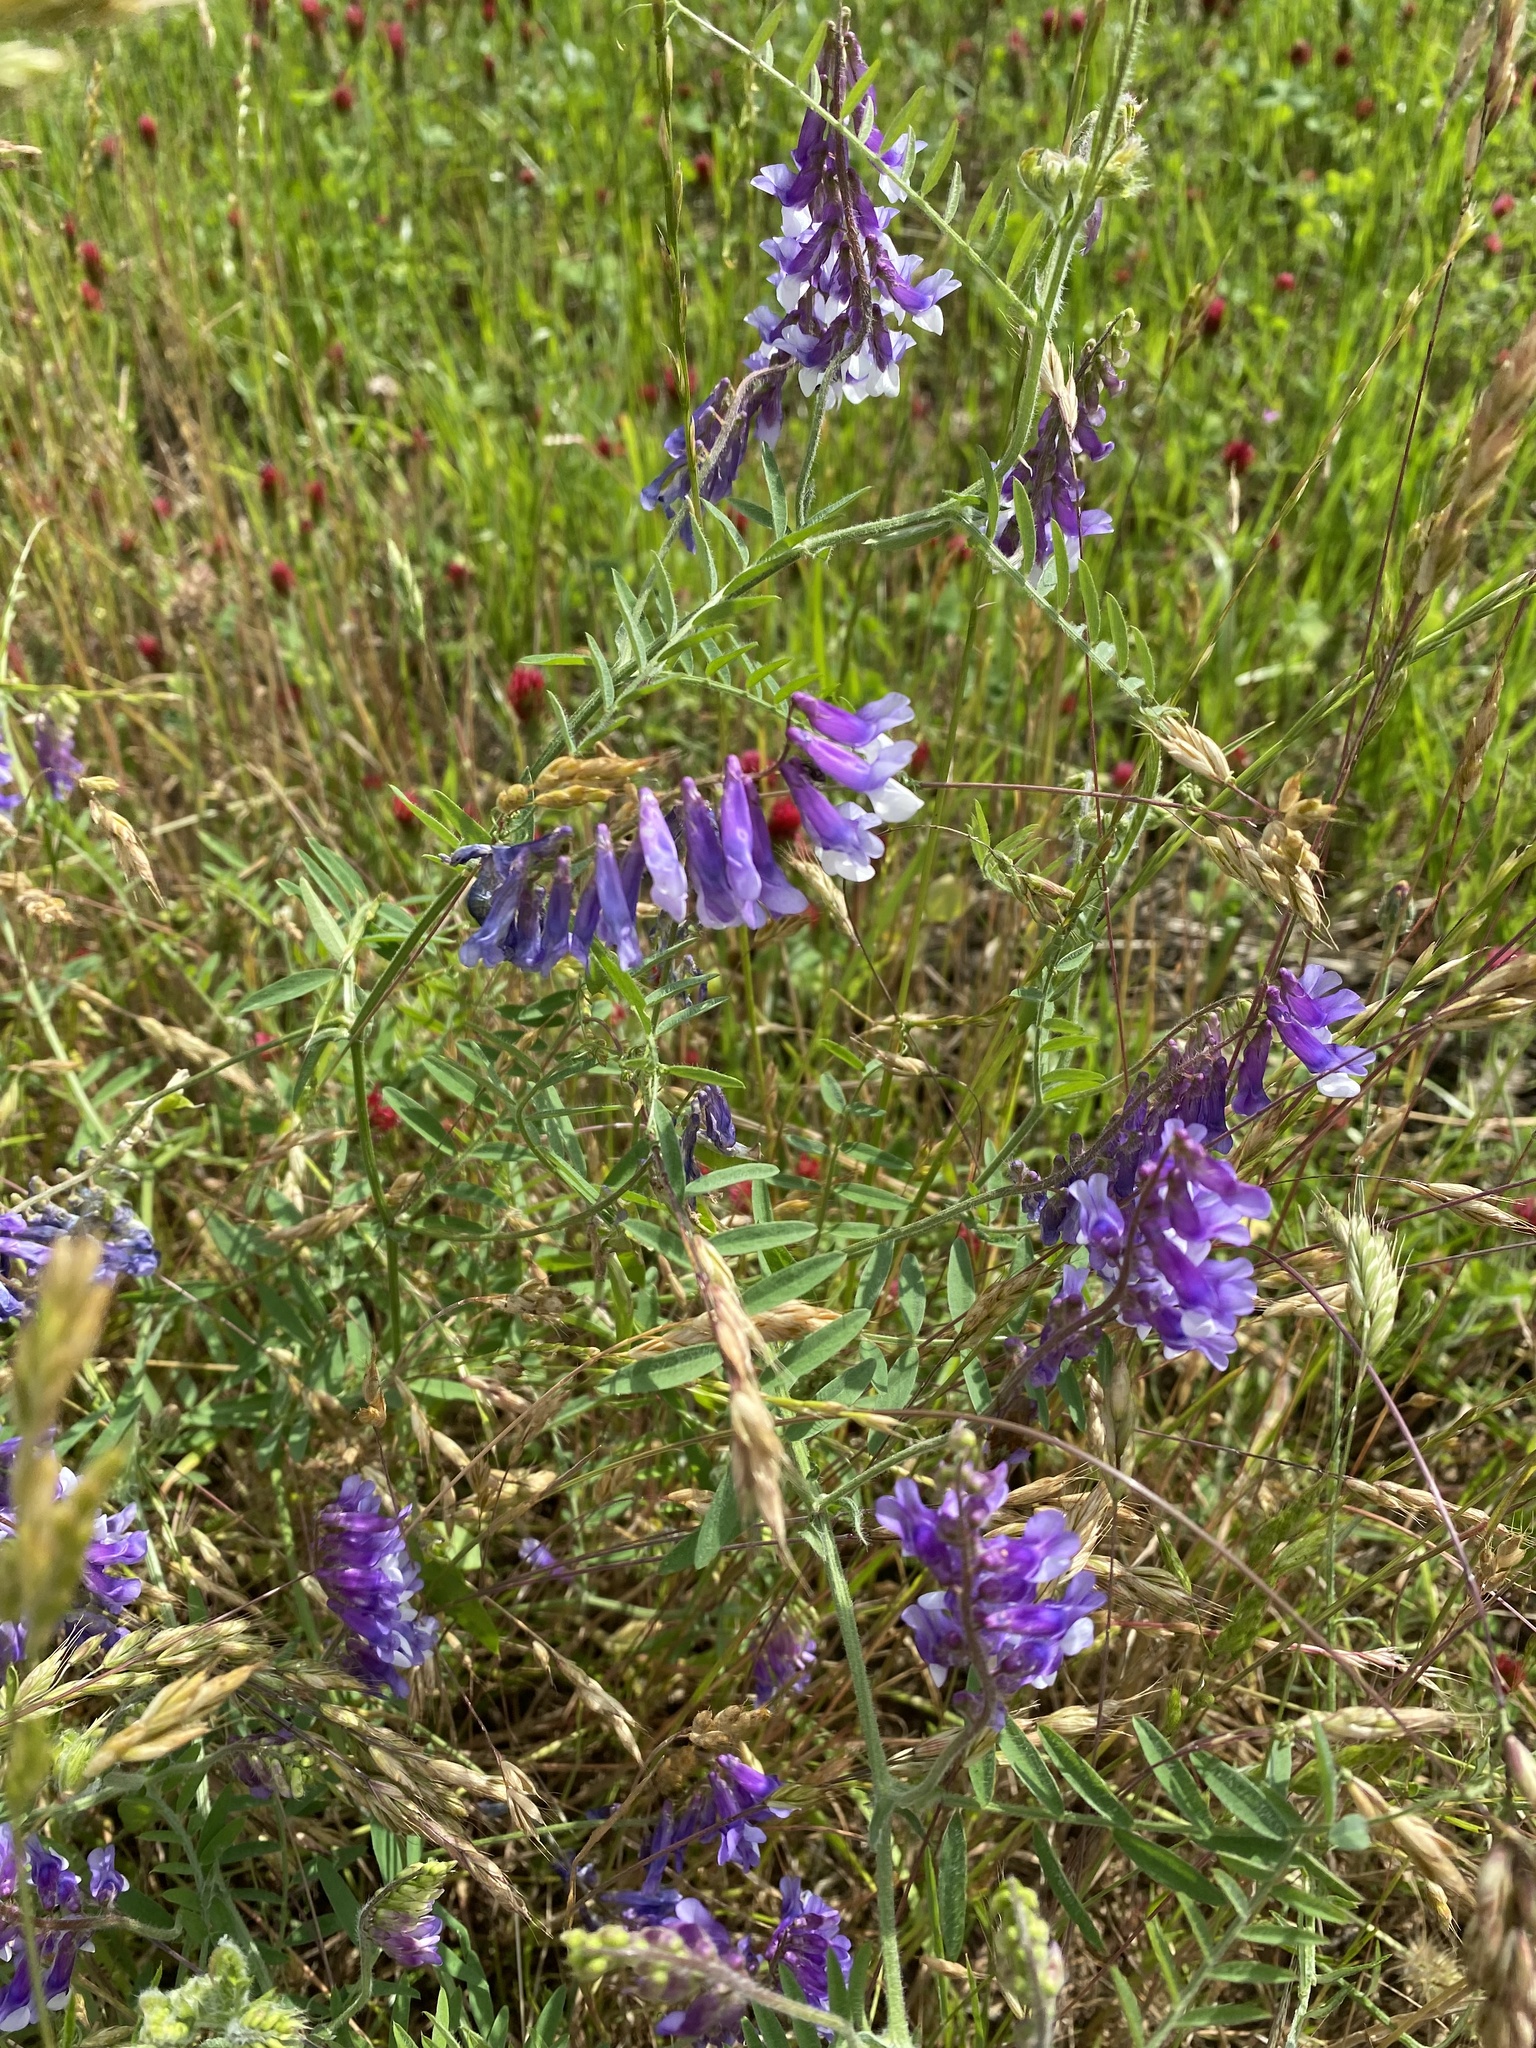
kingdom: Plantae
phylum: Tracheophyta
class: Magnoliopsida
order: Fabales
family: Fabaceae
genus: Vicia
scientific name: Vicia villosa
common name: Fodder vetch
